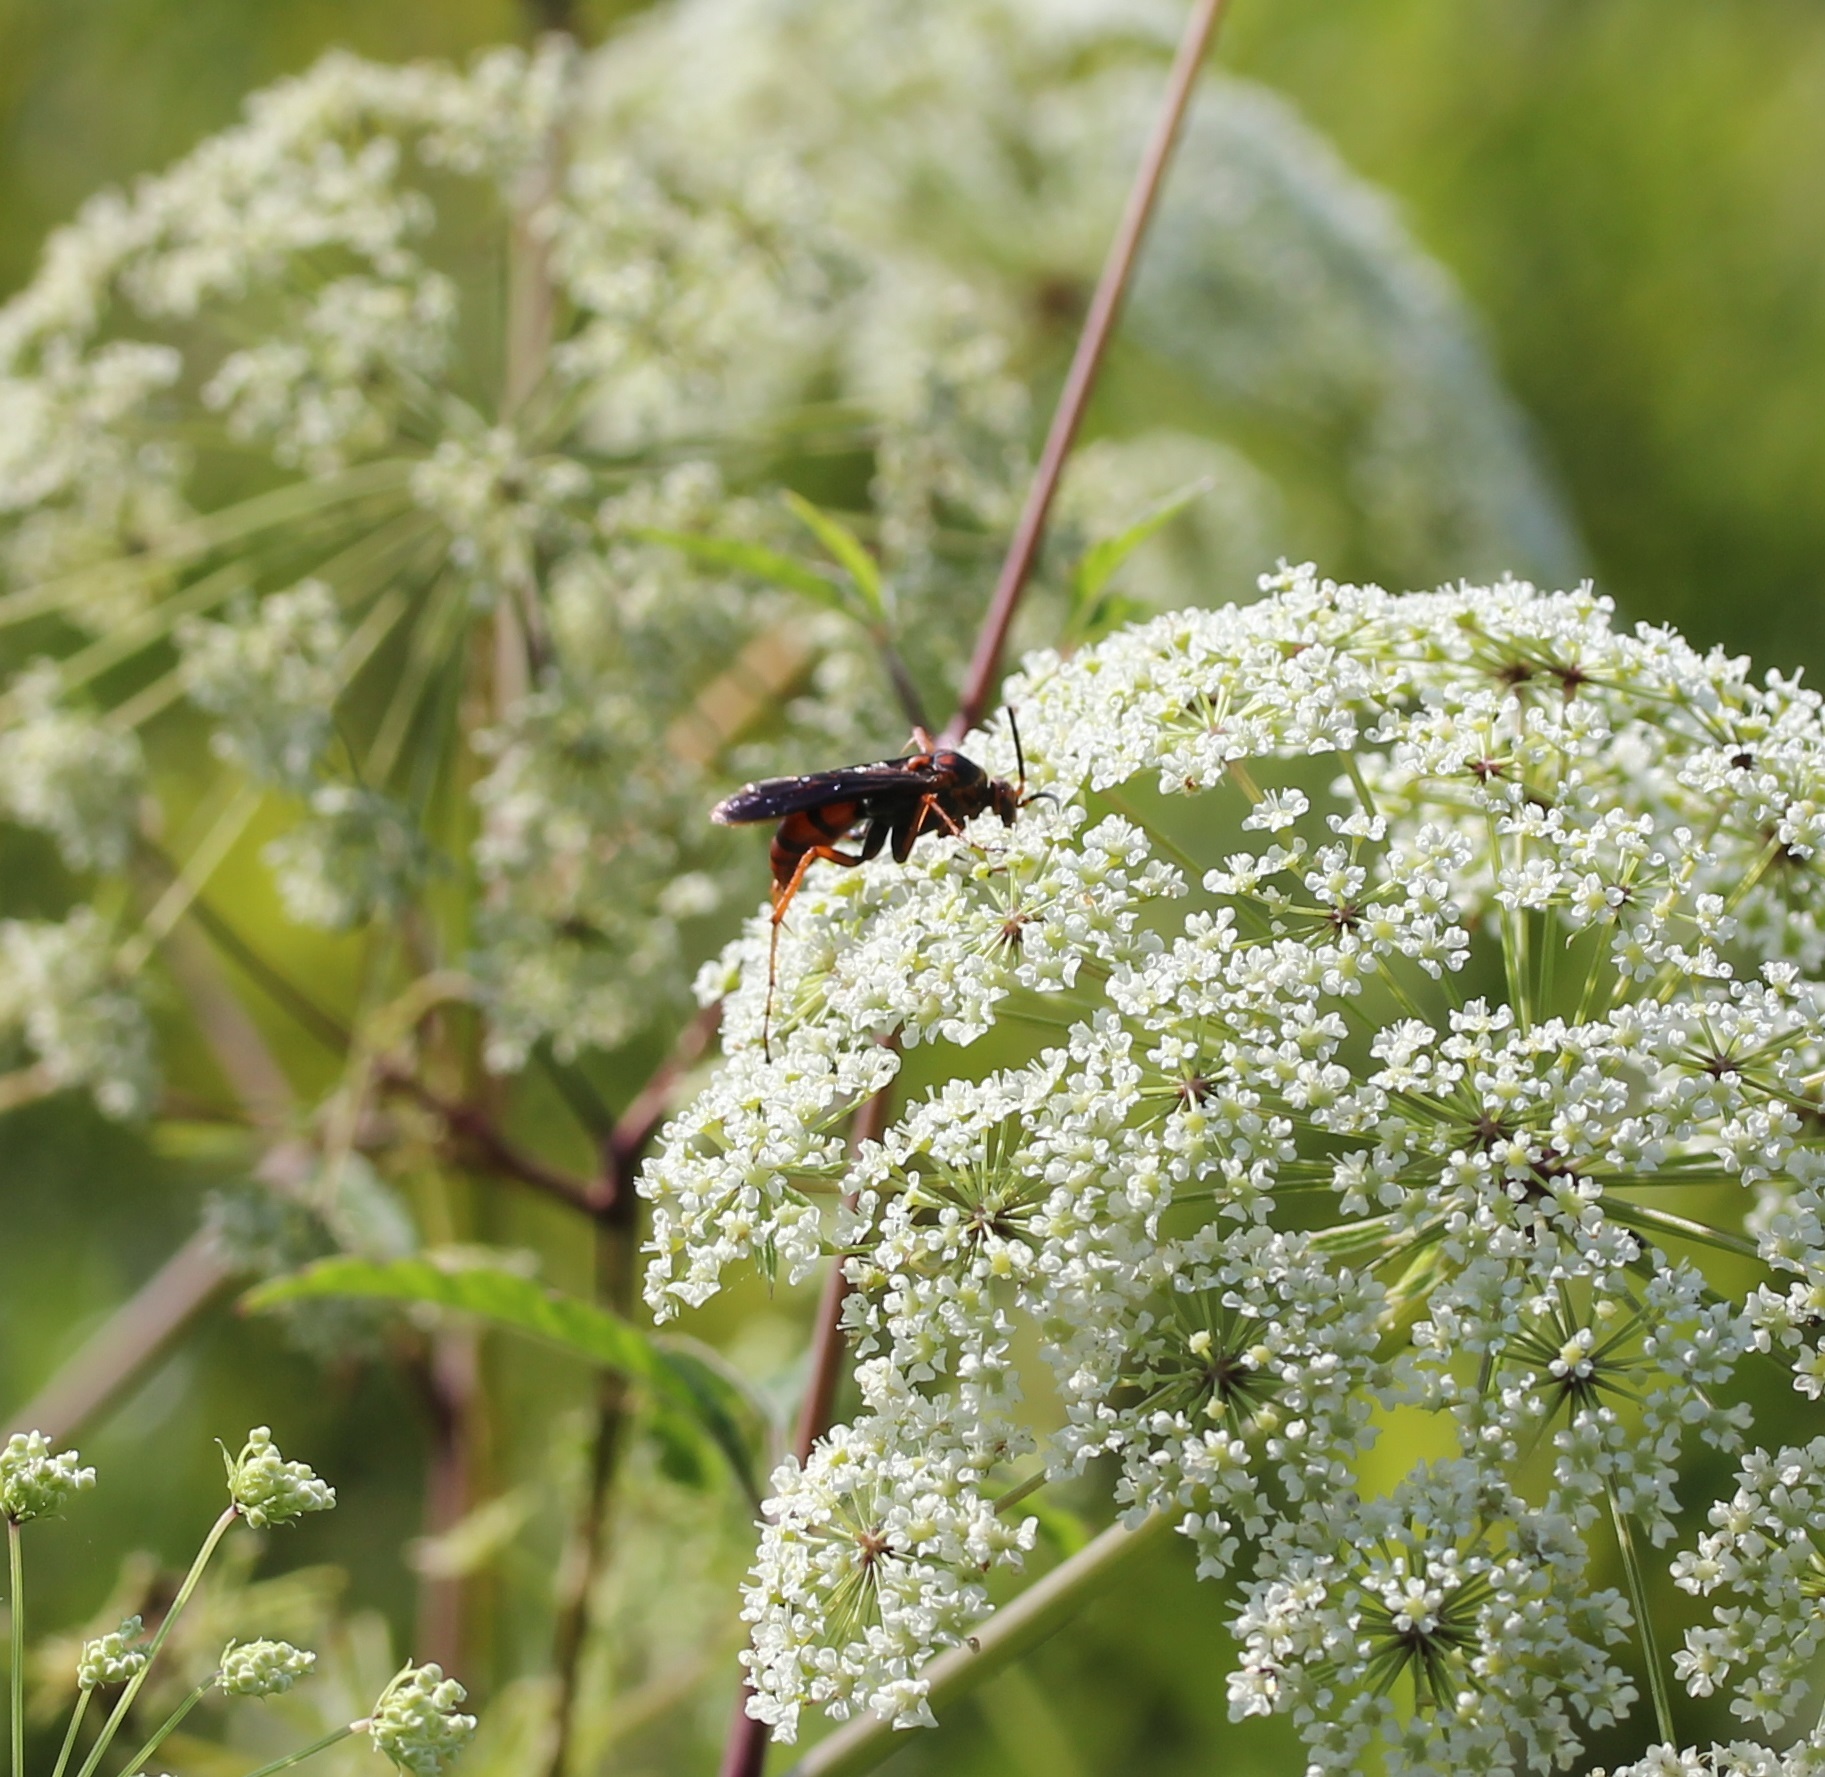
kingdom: Animalia
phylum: Arthropoda
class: Insecta
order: Hymenoptera
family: Pompilidae
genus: Tachypompilus
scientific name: Tachypompilus ferrugineus
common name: Rusty spider wasp
